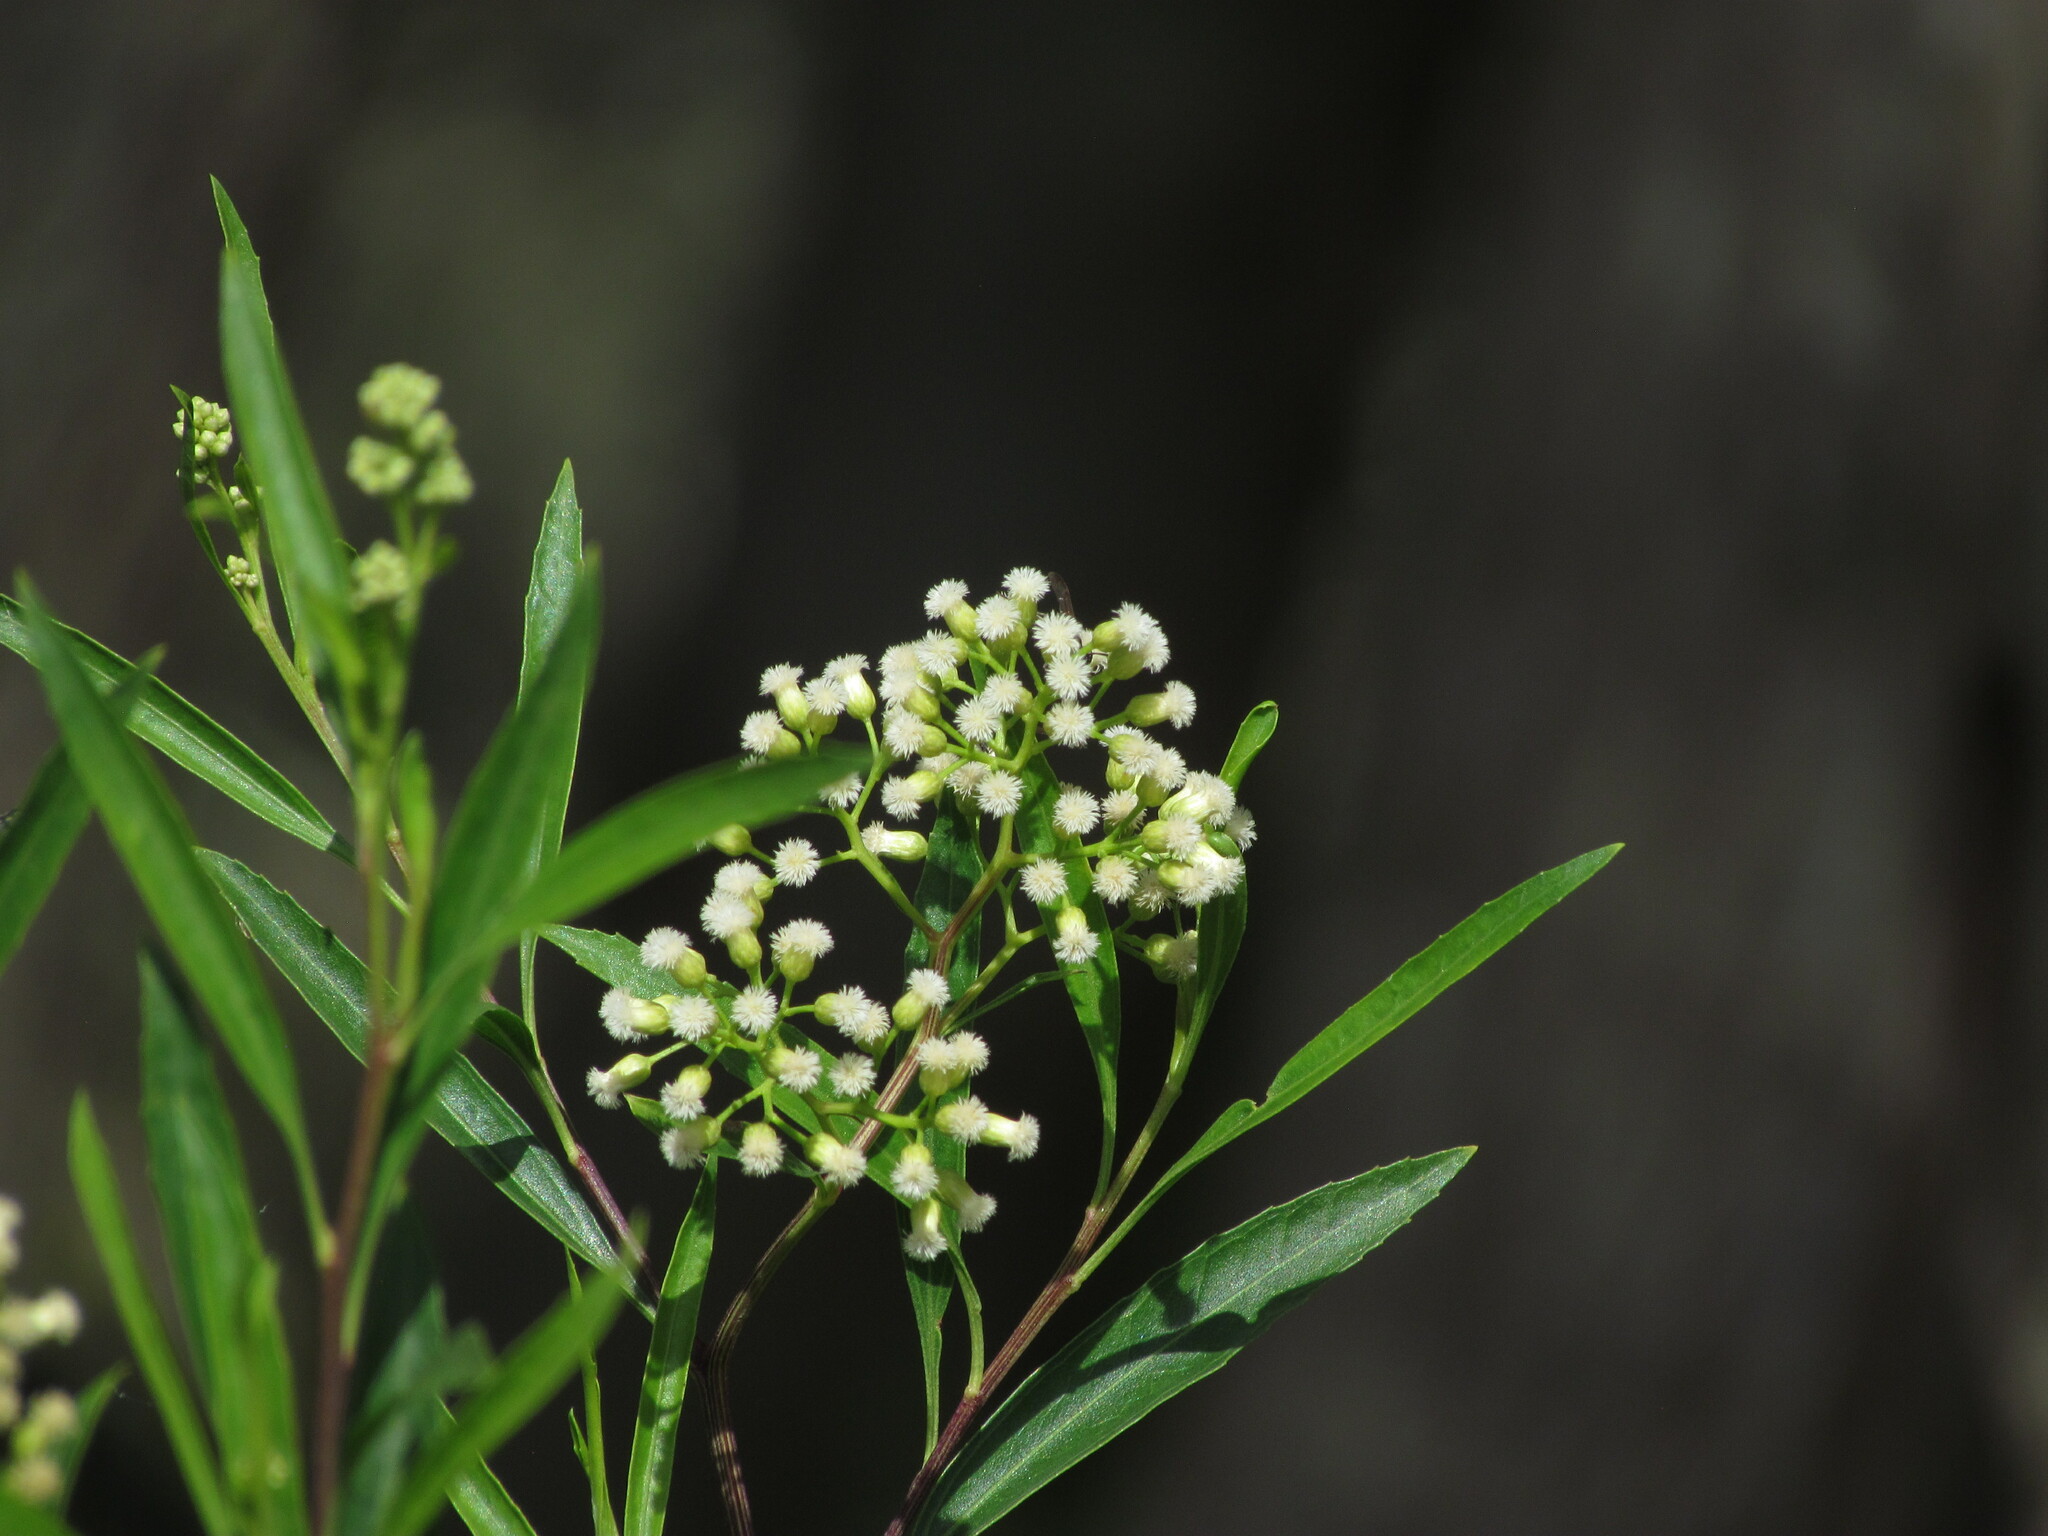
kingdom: Plantae
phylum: Tracheophyta
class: Magnoliopsida
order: Asterales
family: Asteraceae
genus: Baccharis
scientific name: Baccharis salicifolia
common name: Sticky baccharis
